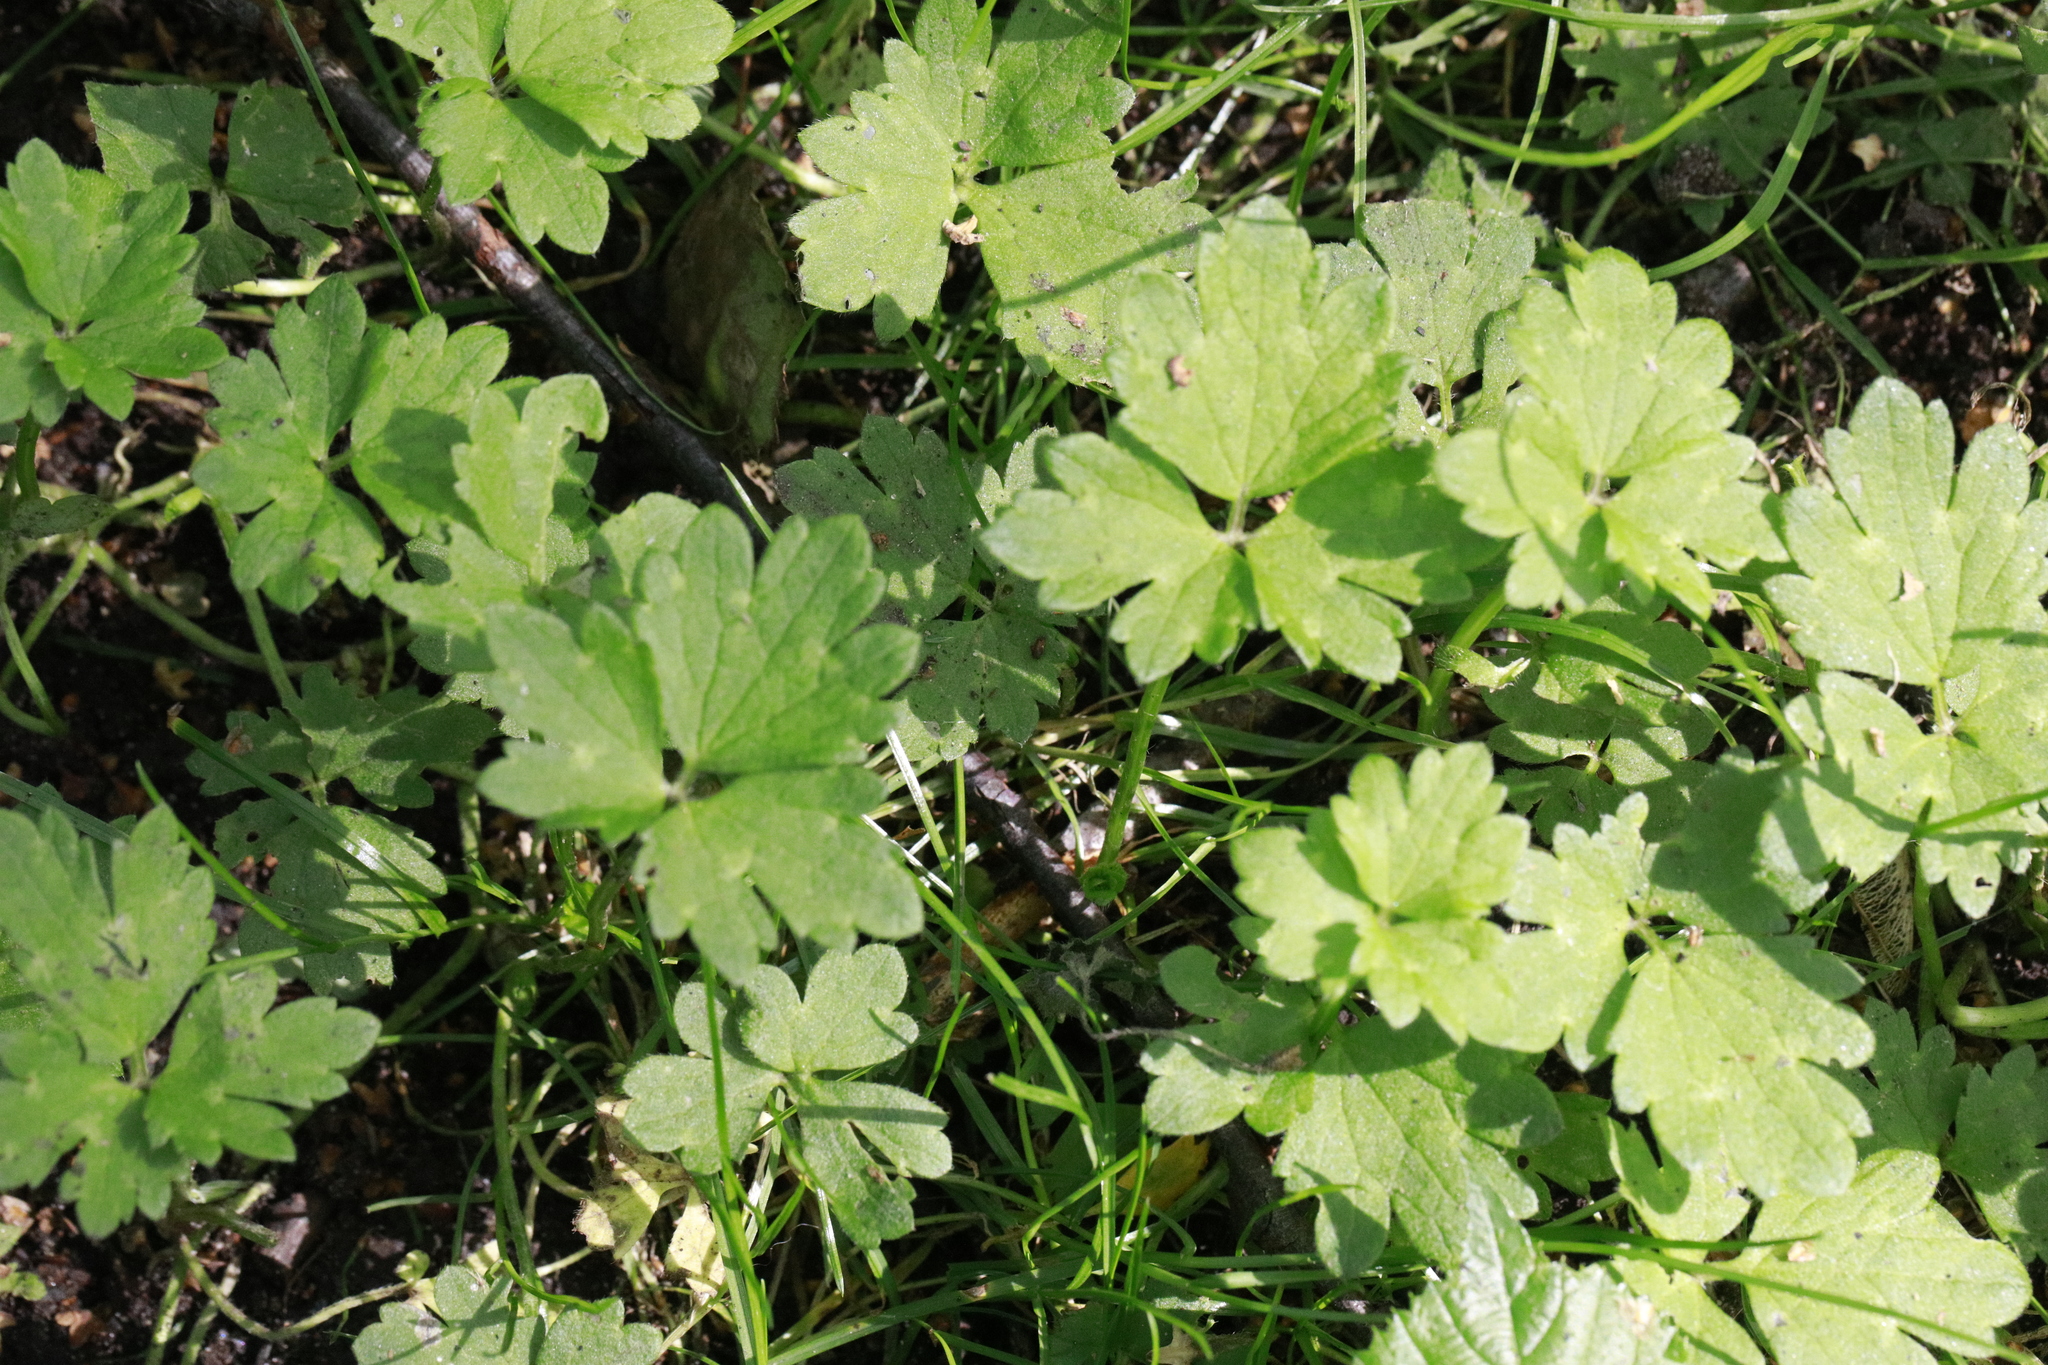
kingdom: Plantae
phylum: Tracheophyta
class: Magnoliopsida
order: Ranunculales
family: Ranunculaceae
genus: Ranunculus
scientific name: Ranunculus repens
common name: Creeping buttercup
